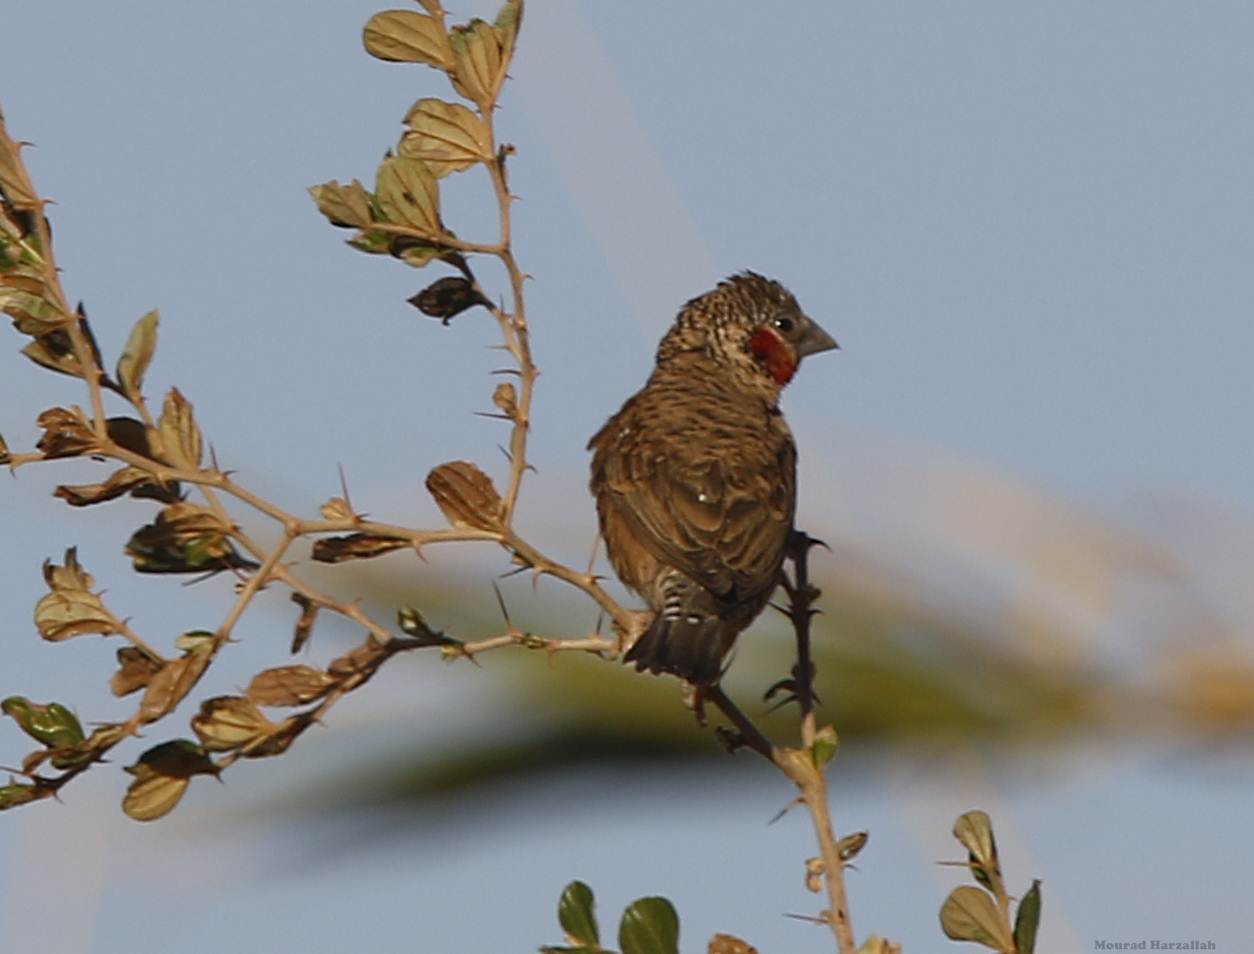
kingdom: Animalia
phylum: Chordata
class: Aves
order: Passeriformes
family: Estrildidae
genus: Amadina
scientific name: Amadina fasciata
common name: Cut-throat finch
